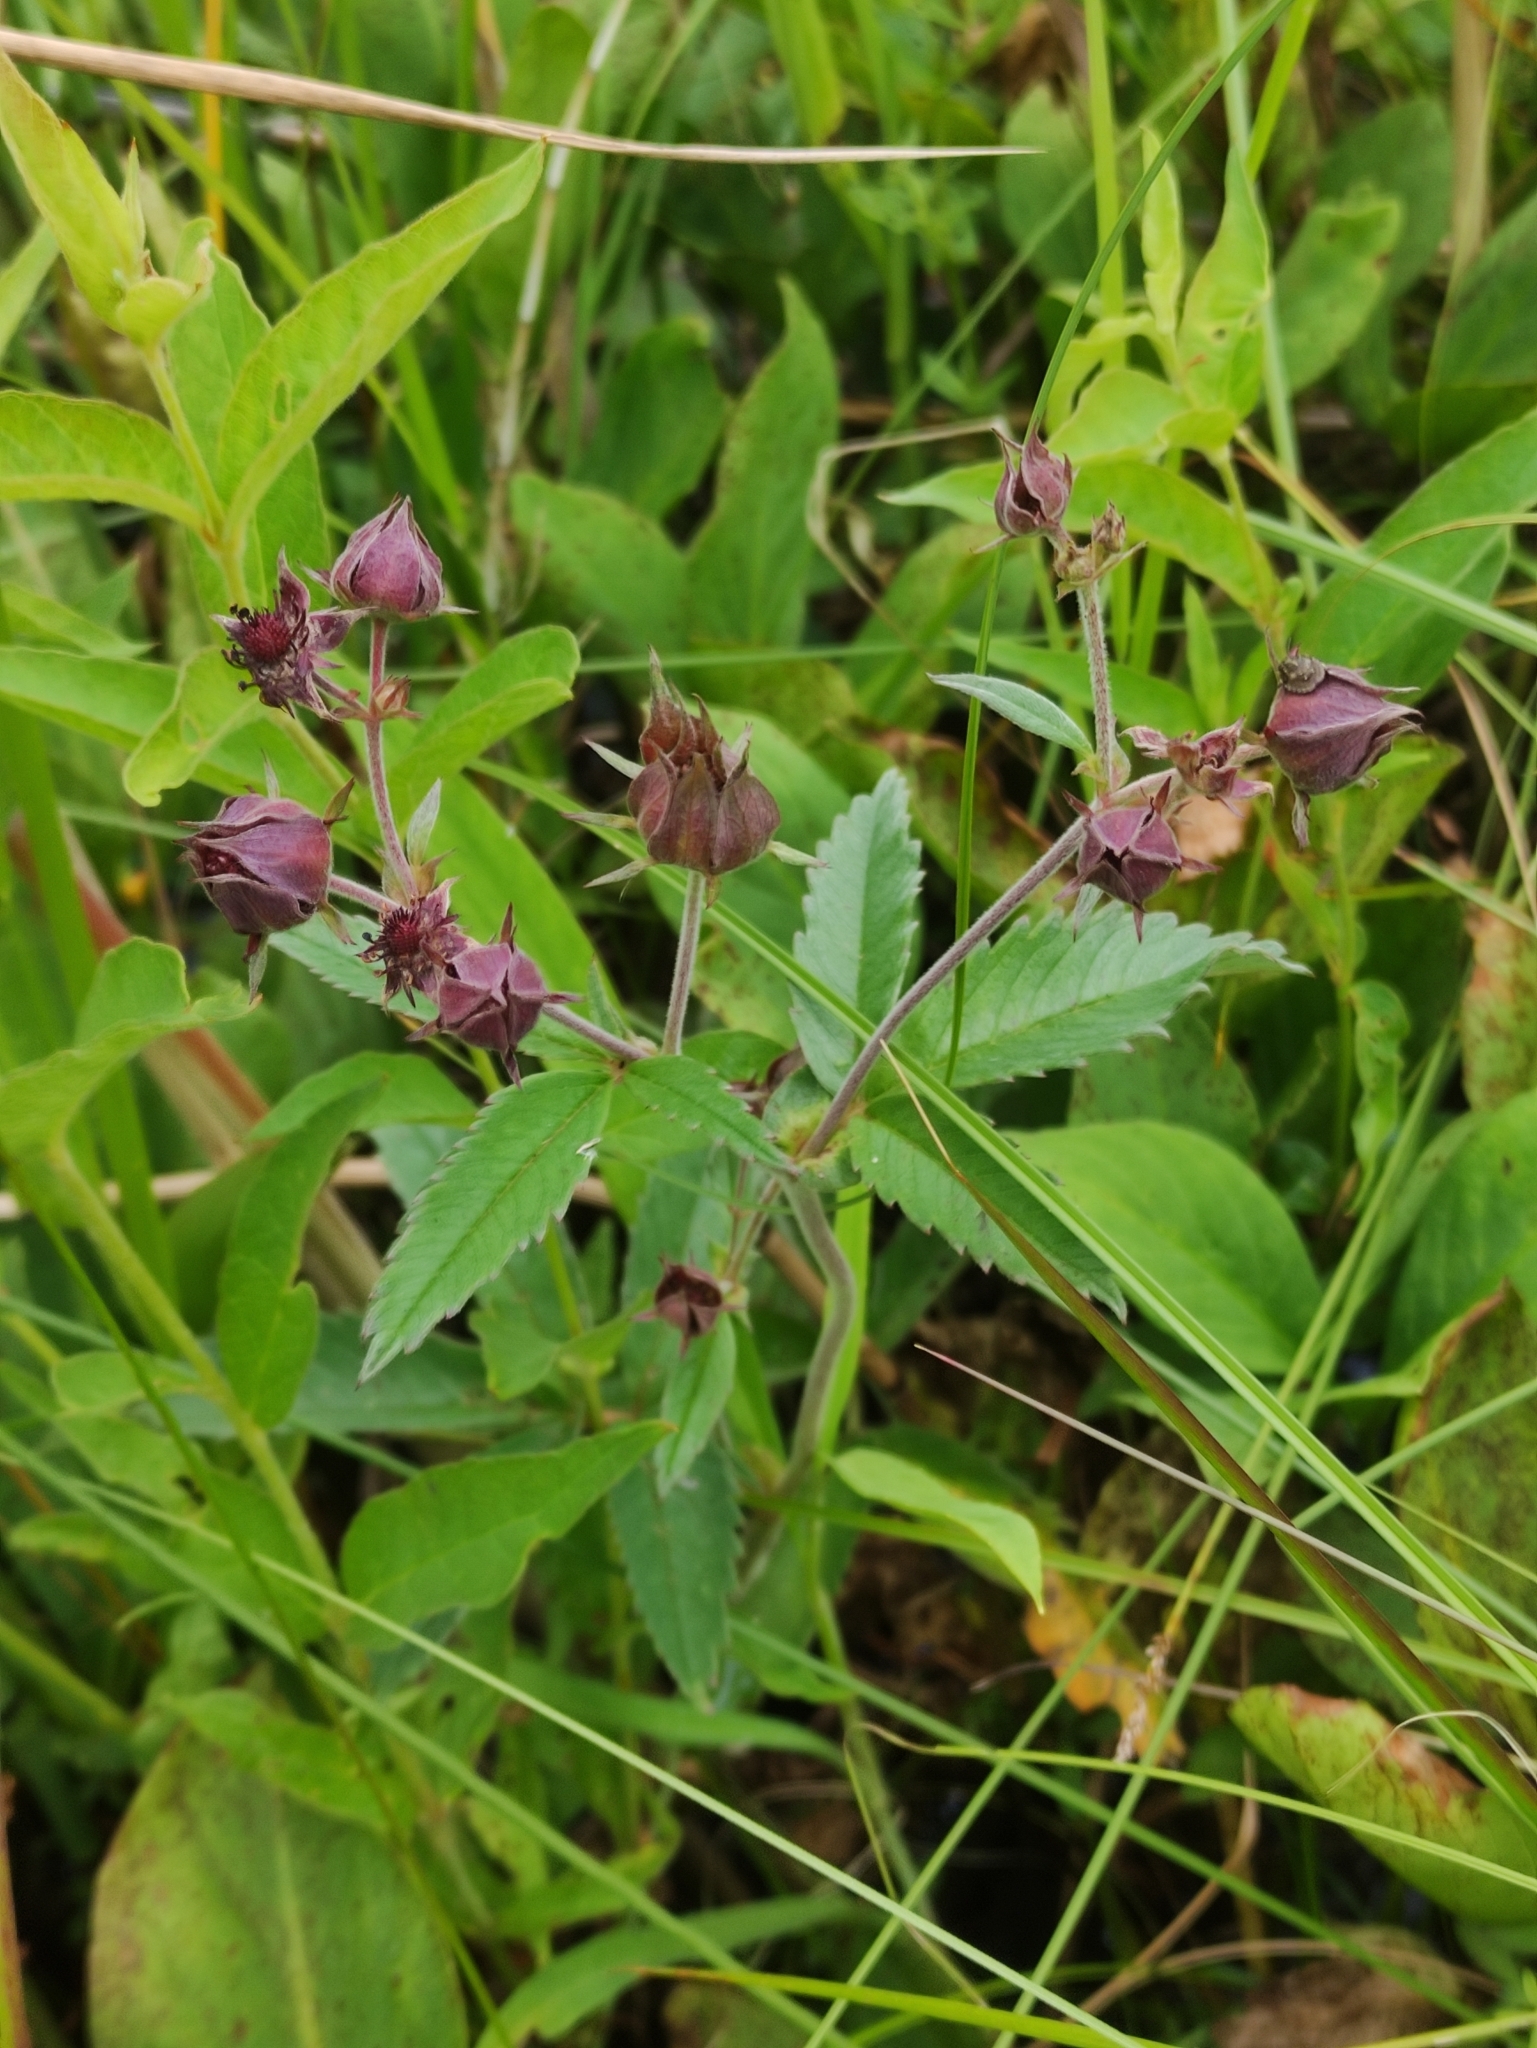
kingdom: Plantae
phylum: Tracheophyta
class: Magnoliopsida
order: Rosales
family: Rosaceae
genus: Comarum
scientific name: Comarum palustre
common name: Marsh cinquefoil
